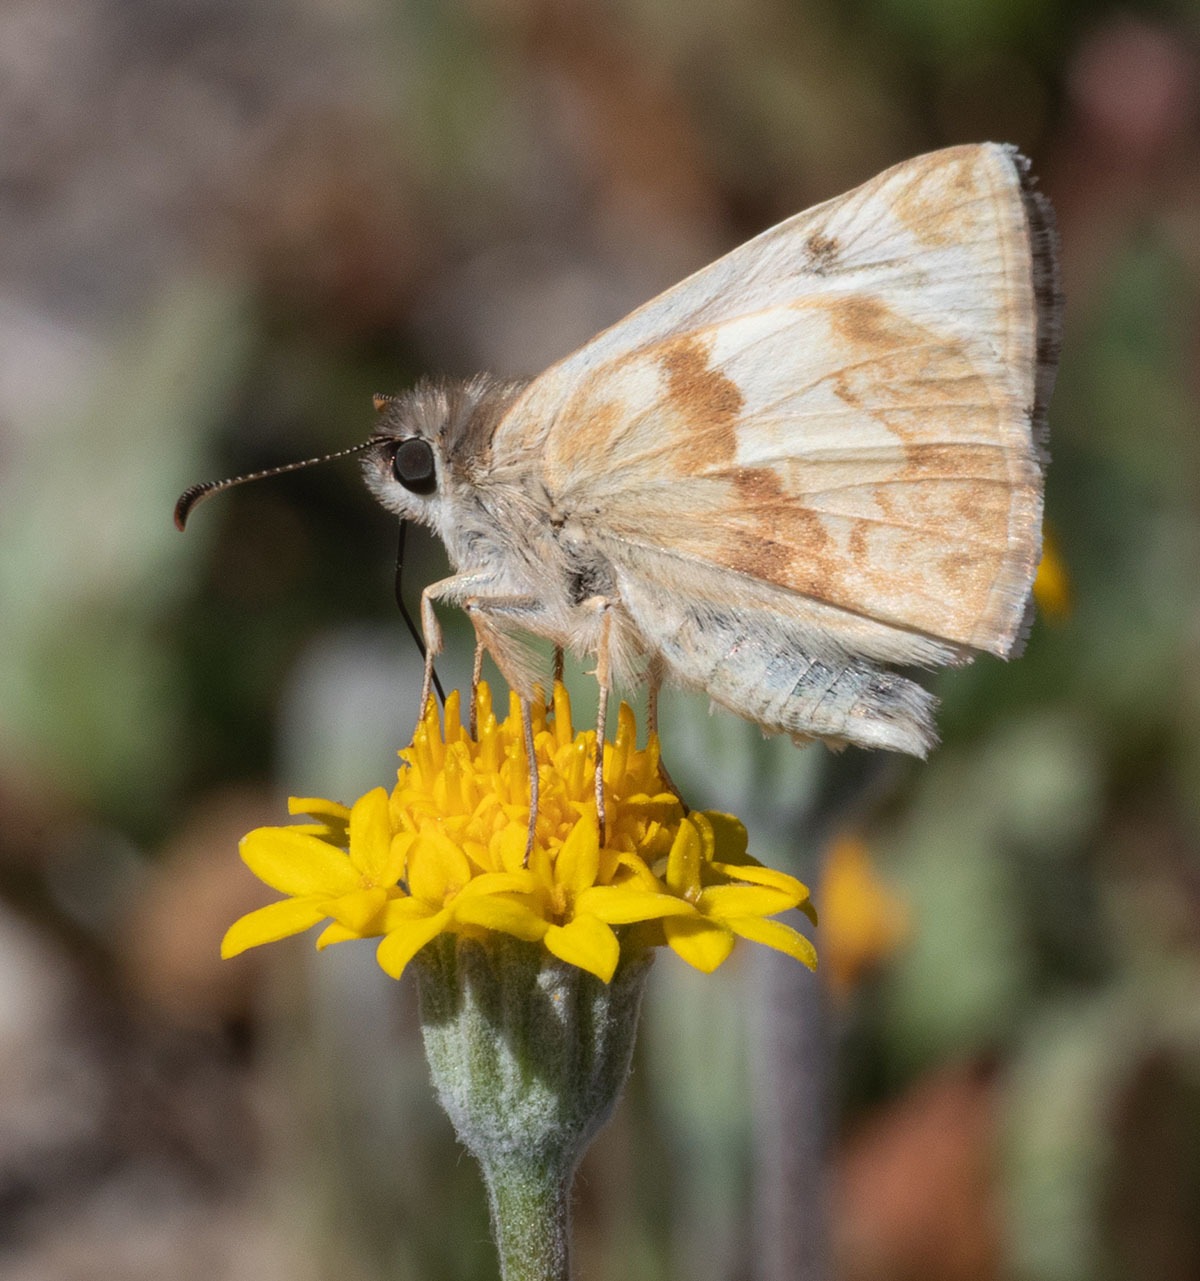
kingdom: Animalia
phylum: Arthropoda
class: Insecta
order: Lepidoptera
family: Hesperiidae
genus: Heliopetes
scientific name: Heliopetes ericetorum
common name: Northern white-skipper
